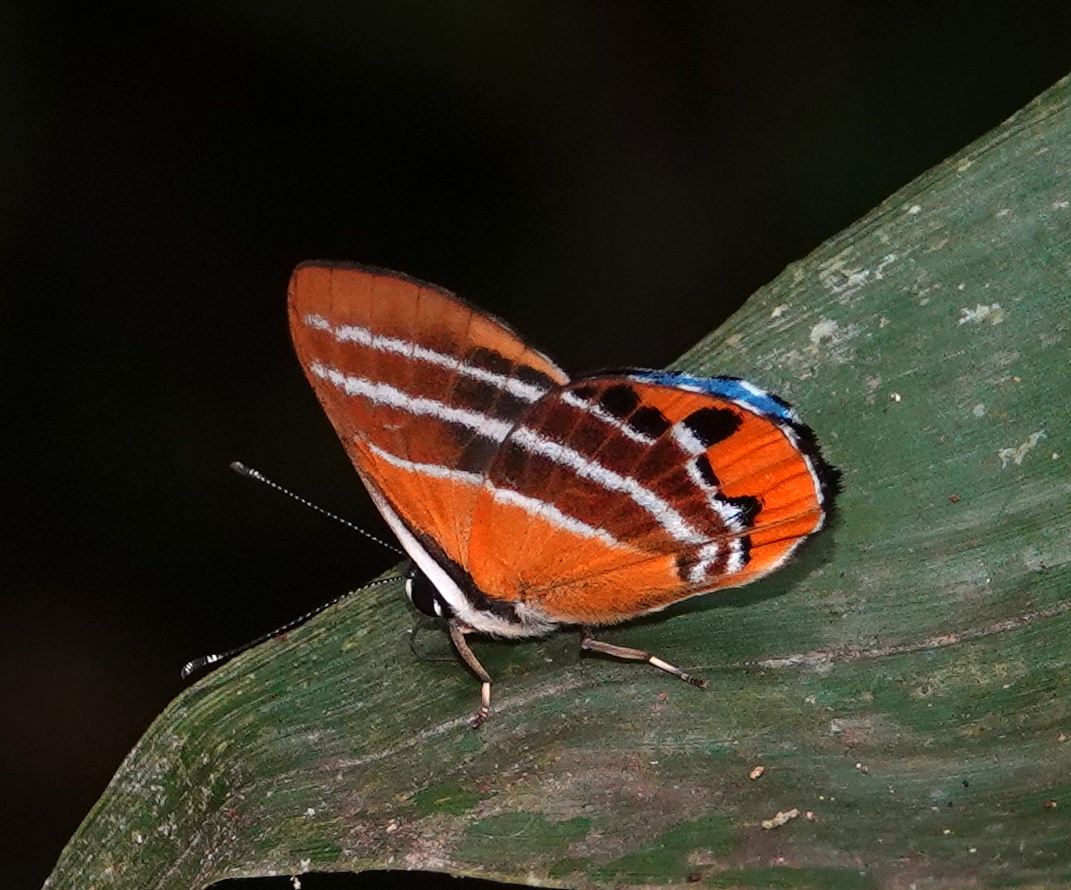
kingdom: Animalia
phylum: Arthropoda
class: Insecta
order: Lepidoptera
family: Lycaenidae
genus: Euselasia
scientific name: Euselasia euriteus
